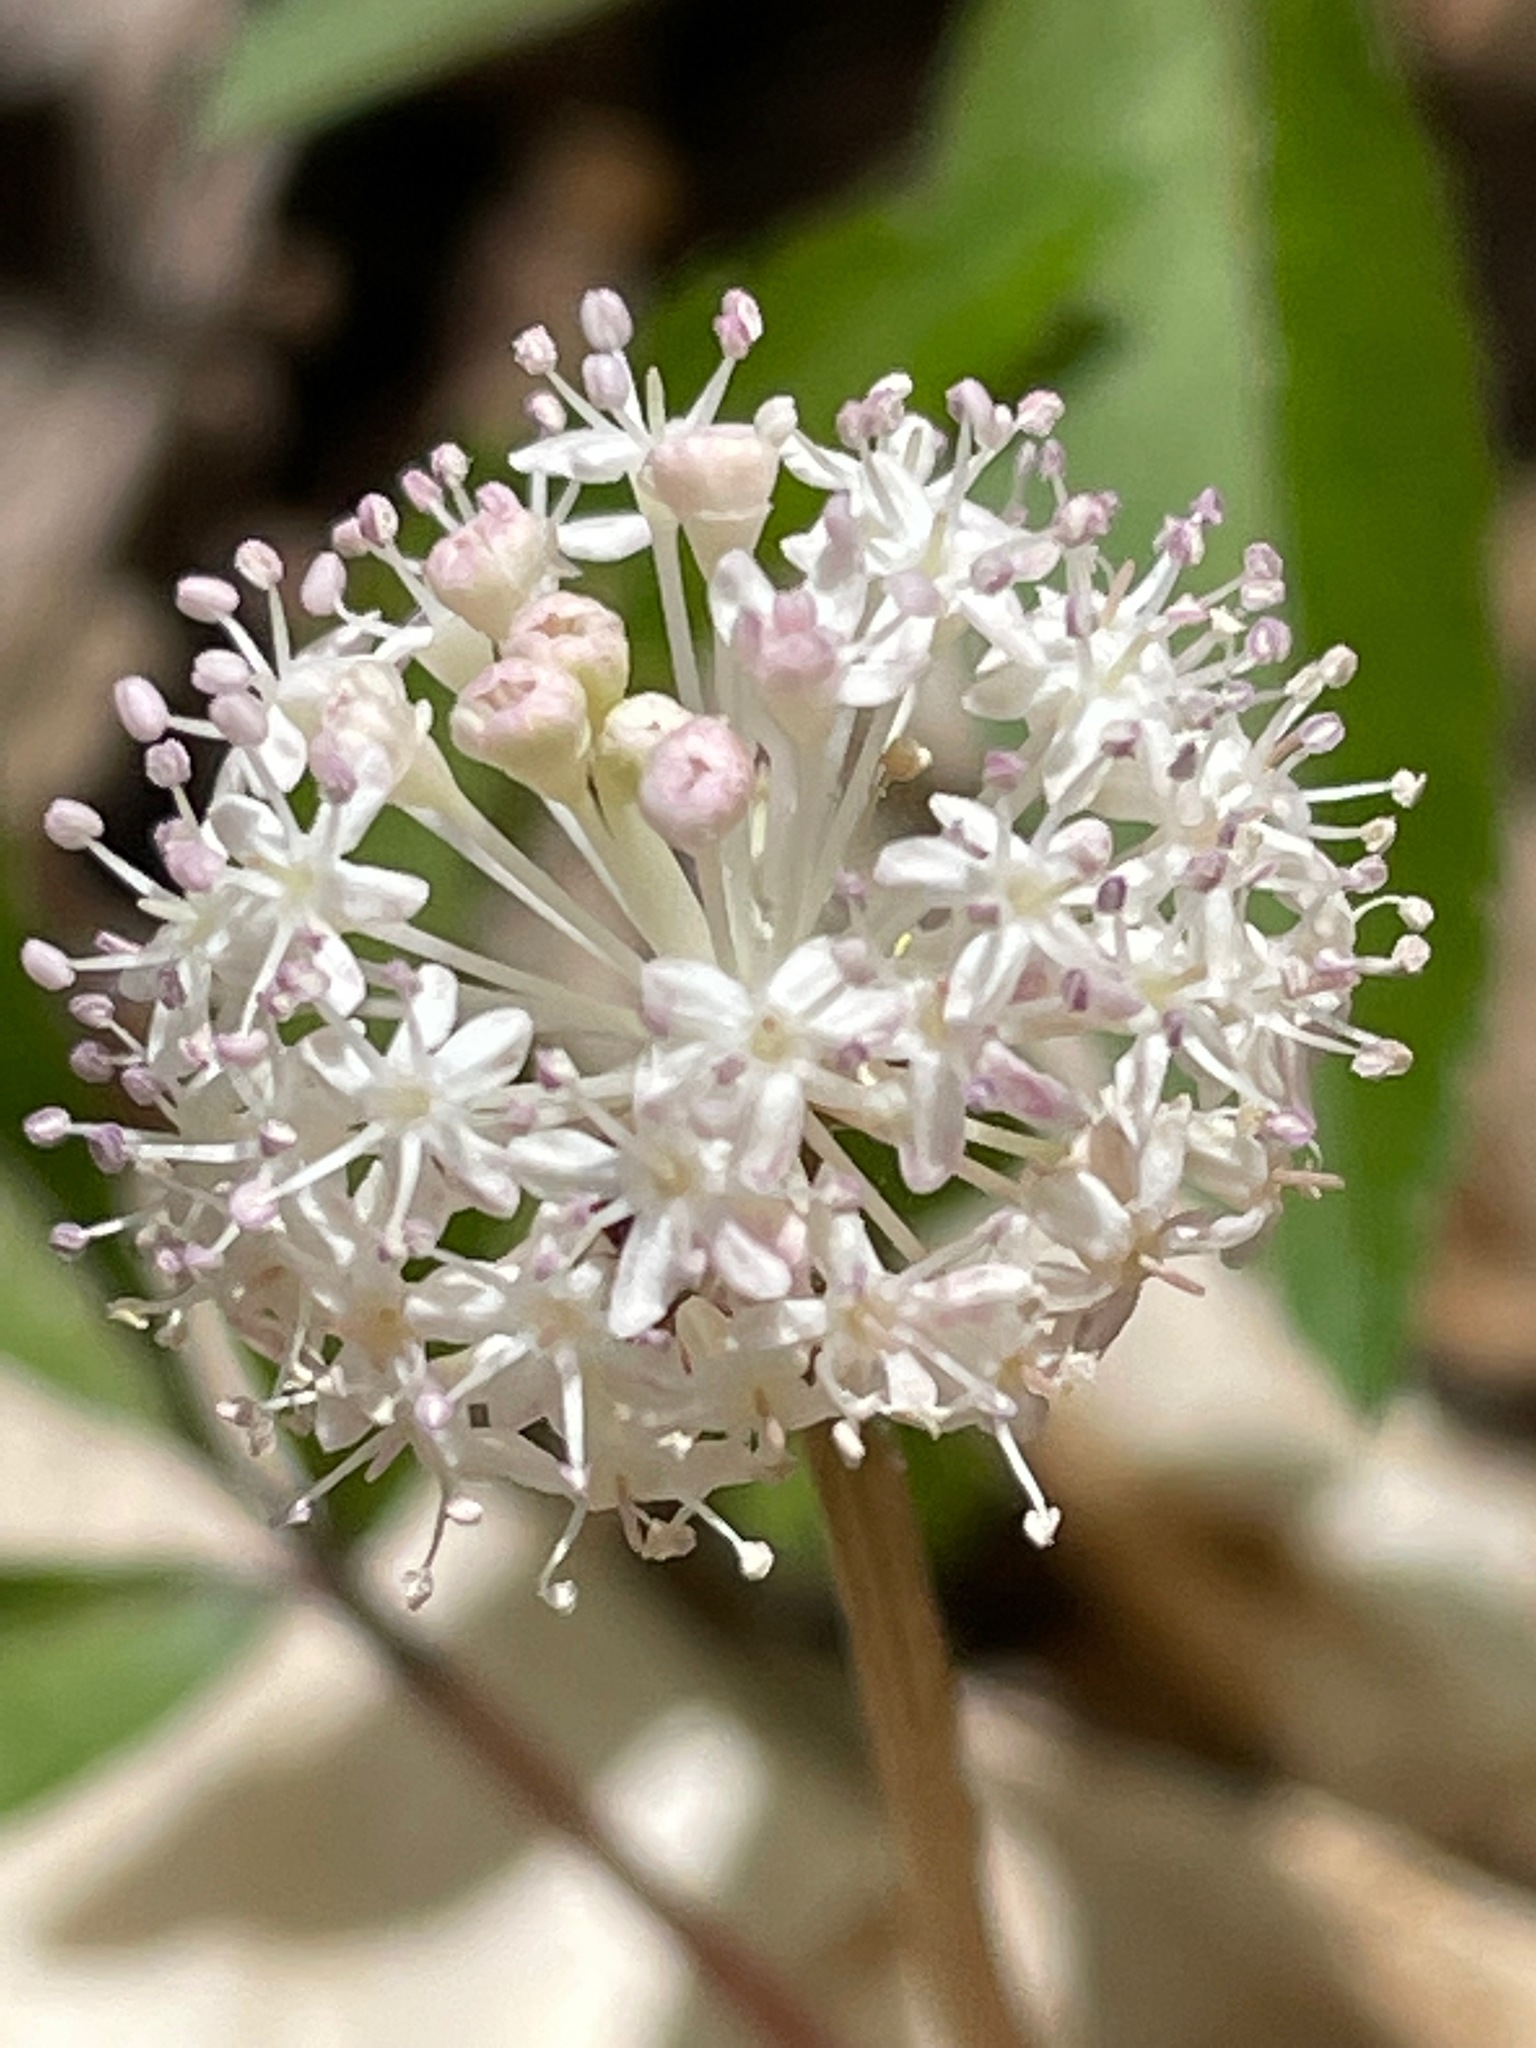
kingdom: Plantae
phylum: Tracheophyta
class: Magnoliopsida
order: Apiales
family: Araliaceae
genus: Panax
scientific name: Panax trifolius
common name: Dwarf ginseng
